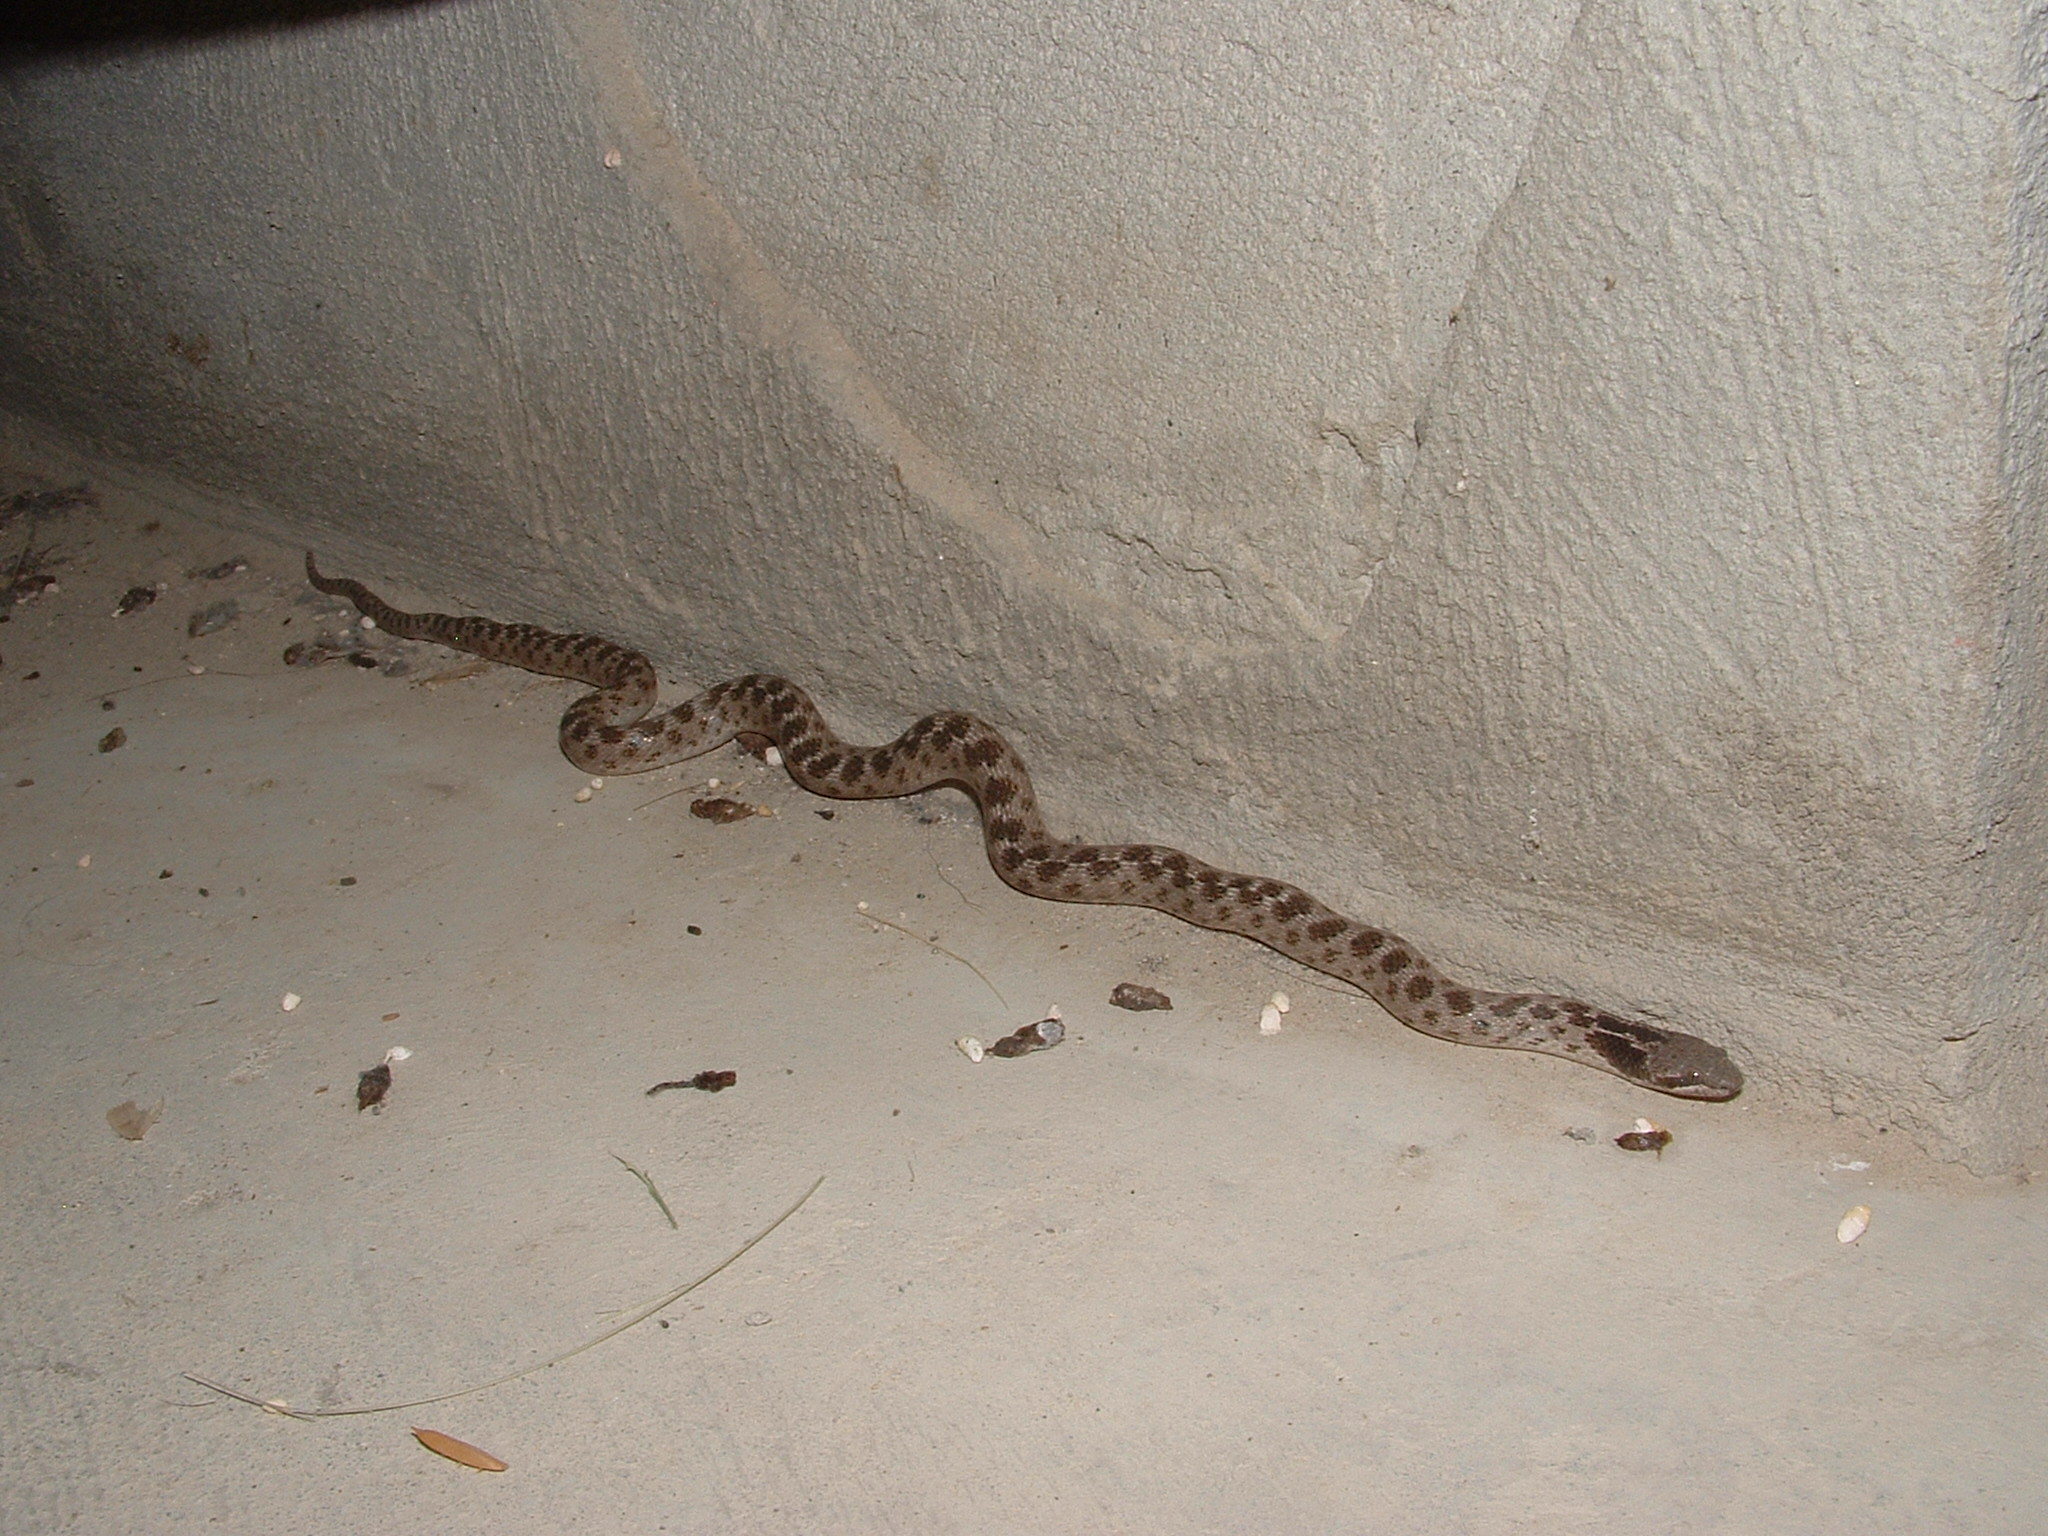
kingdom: Animalia
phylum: Chordata
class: Squamata
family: Colubridae
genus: Hypsiglena
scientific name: Hypsiglena jani
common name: Chihuahuan nightsnake
